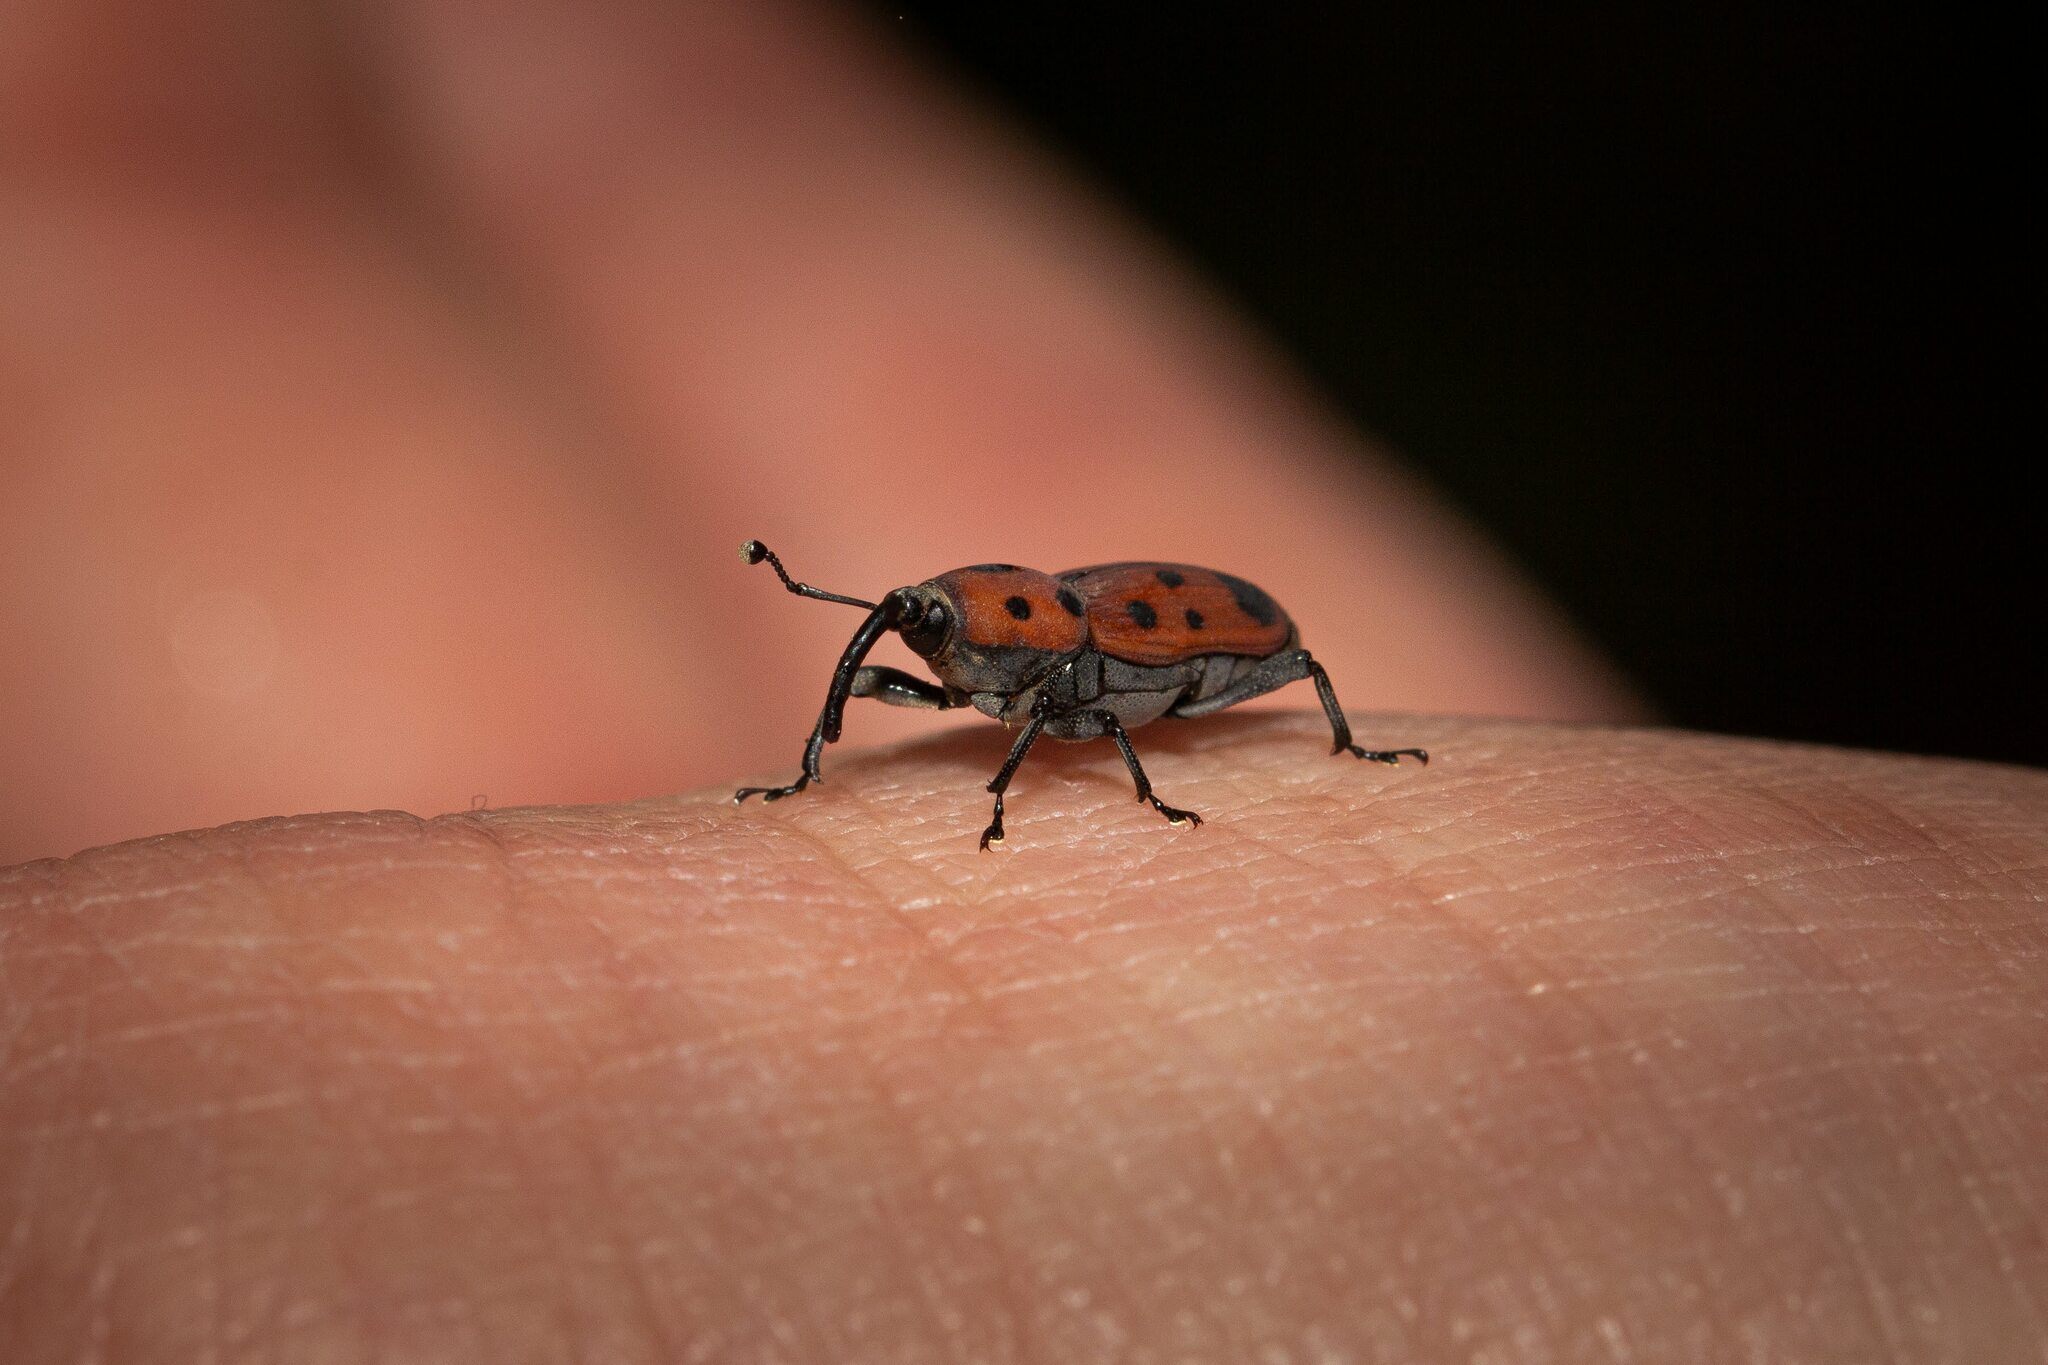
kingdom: Animalia
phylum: Arthropoda
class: Insecta
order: Coleoptera
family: Dryophthoridae
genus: Rhodobaenus
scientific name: Rhodobaenus tredecimpunctatus
